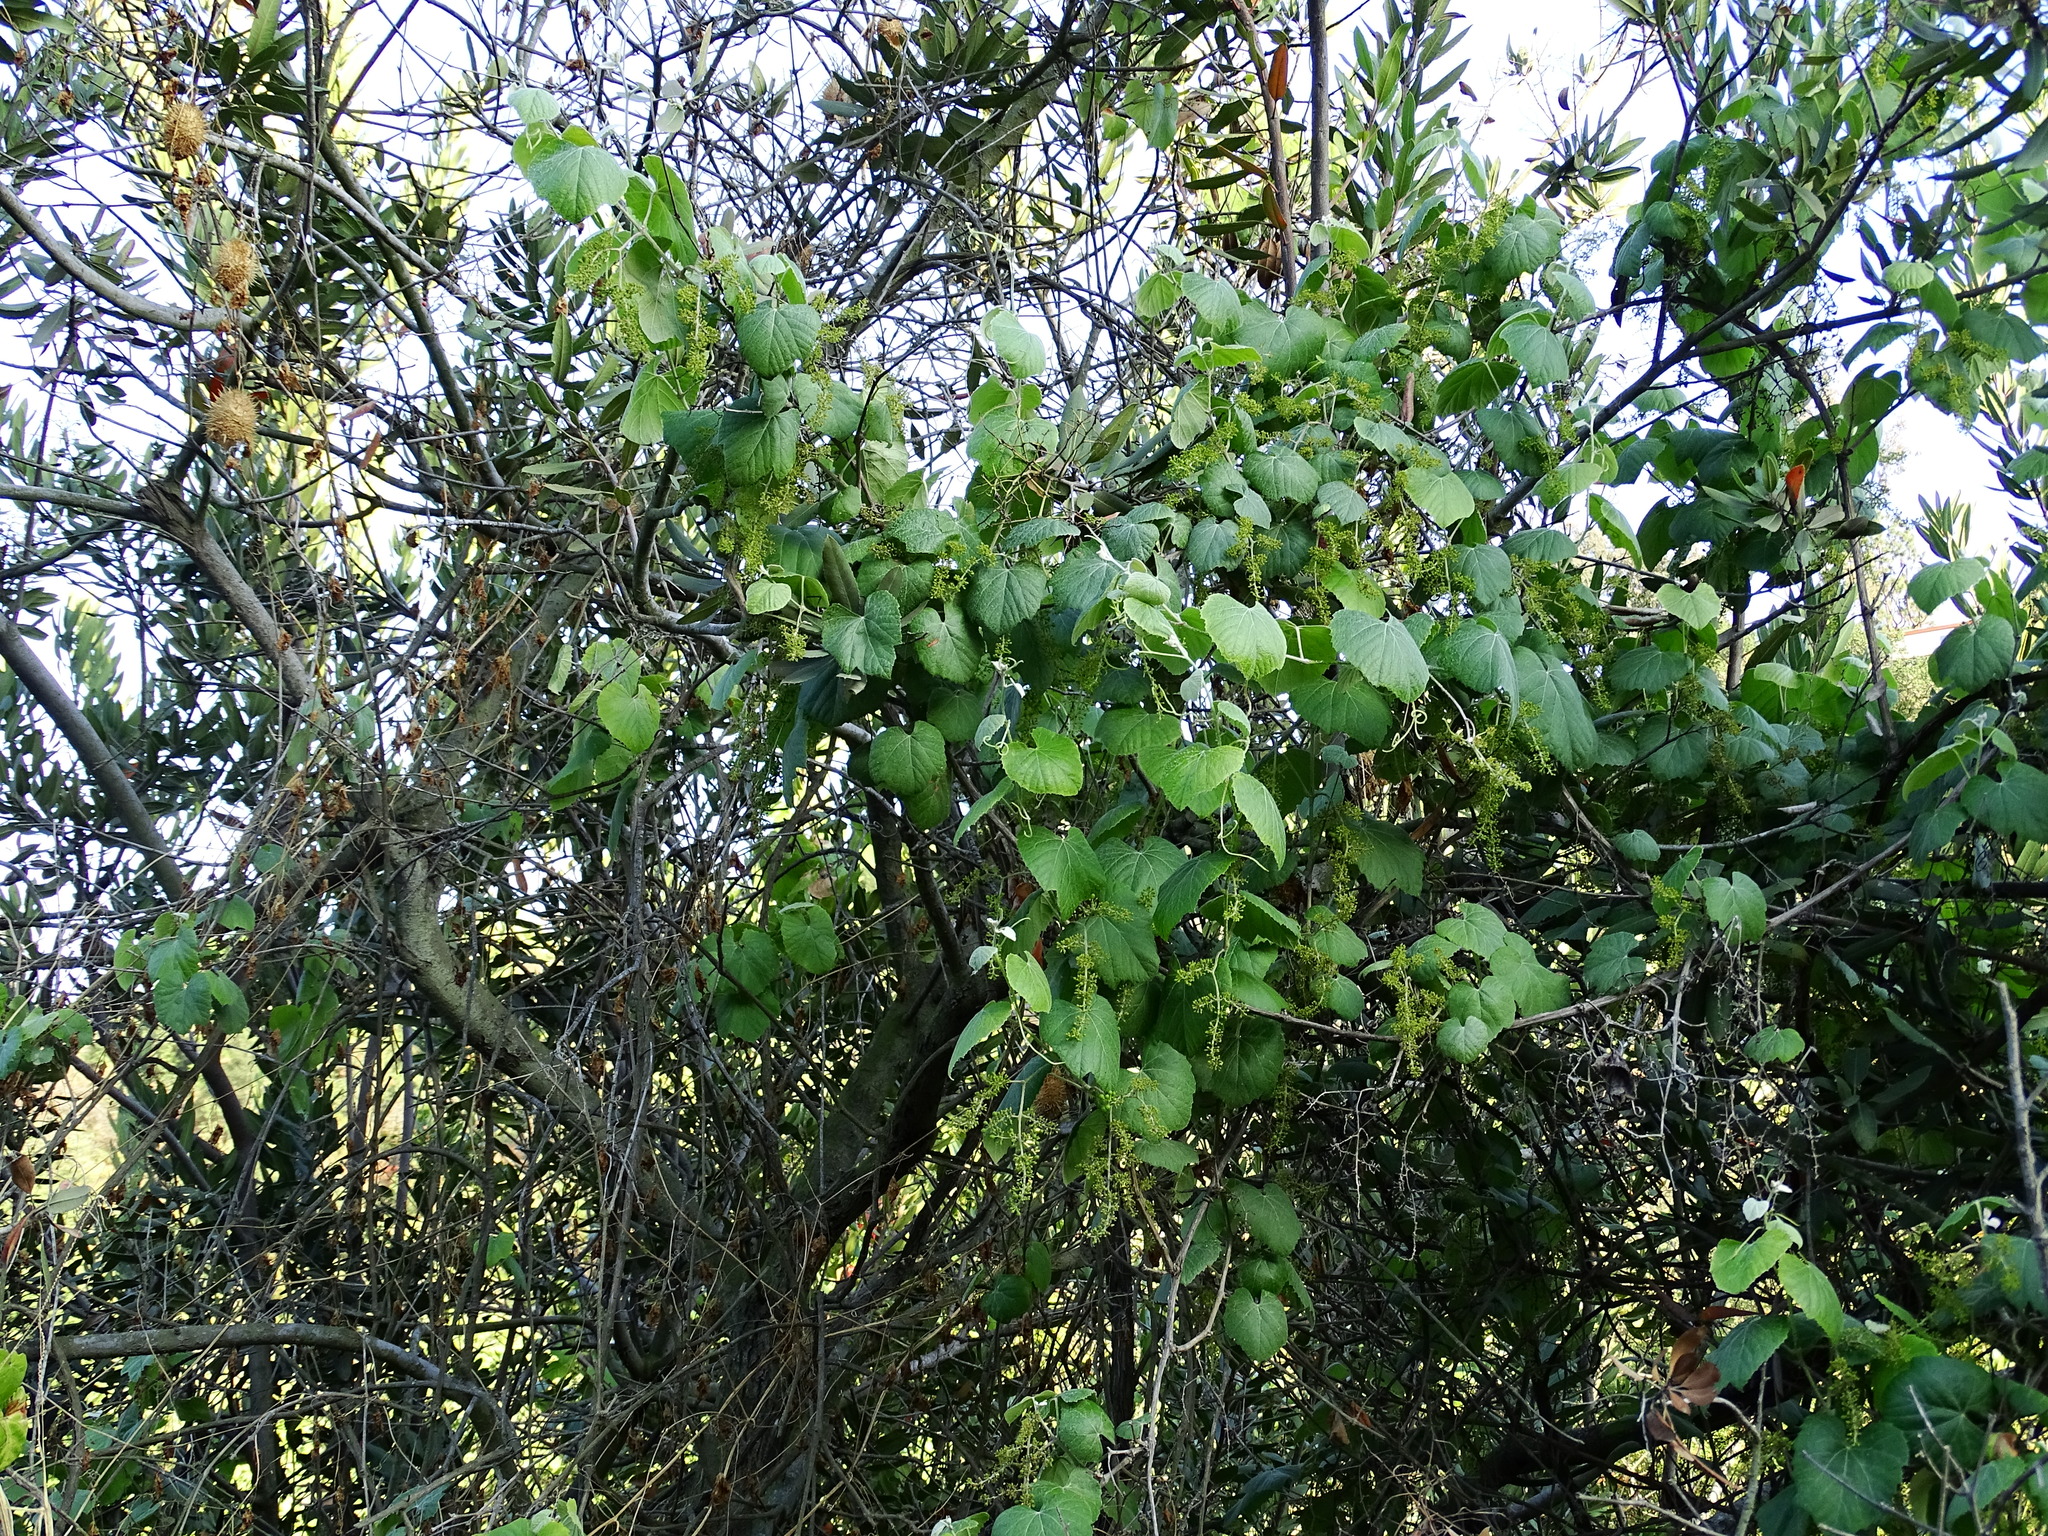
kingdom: Plantae
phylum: Tracheophyta
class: Magnoliopsida
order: Vitales
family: Vitaceae
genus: Vitis
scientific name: Vitis girdiana
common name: Desert wild grape
